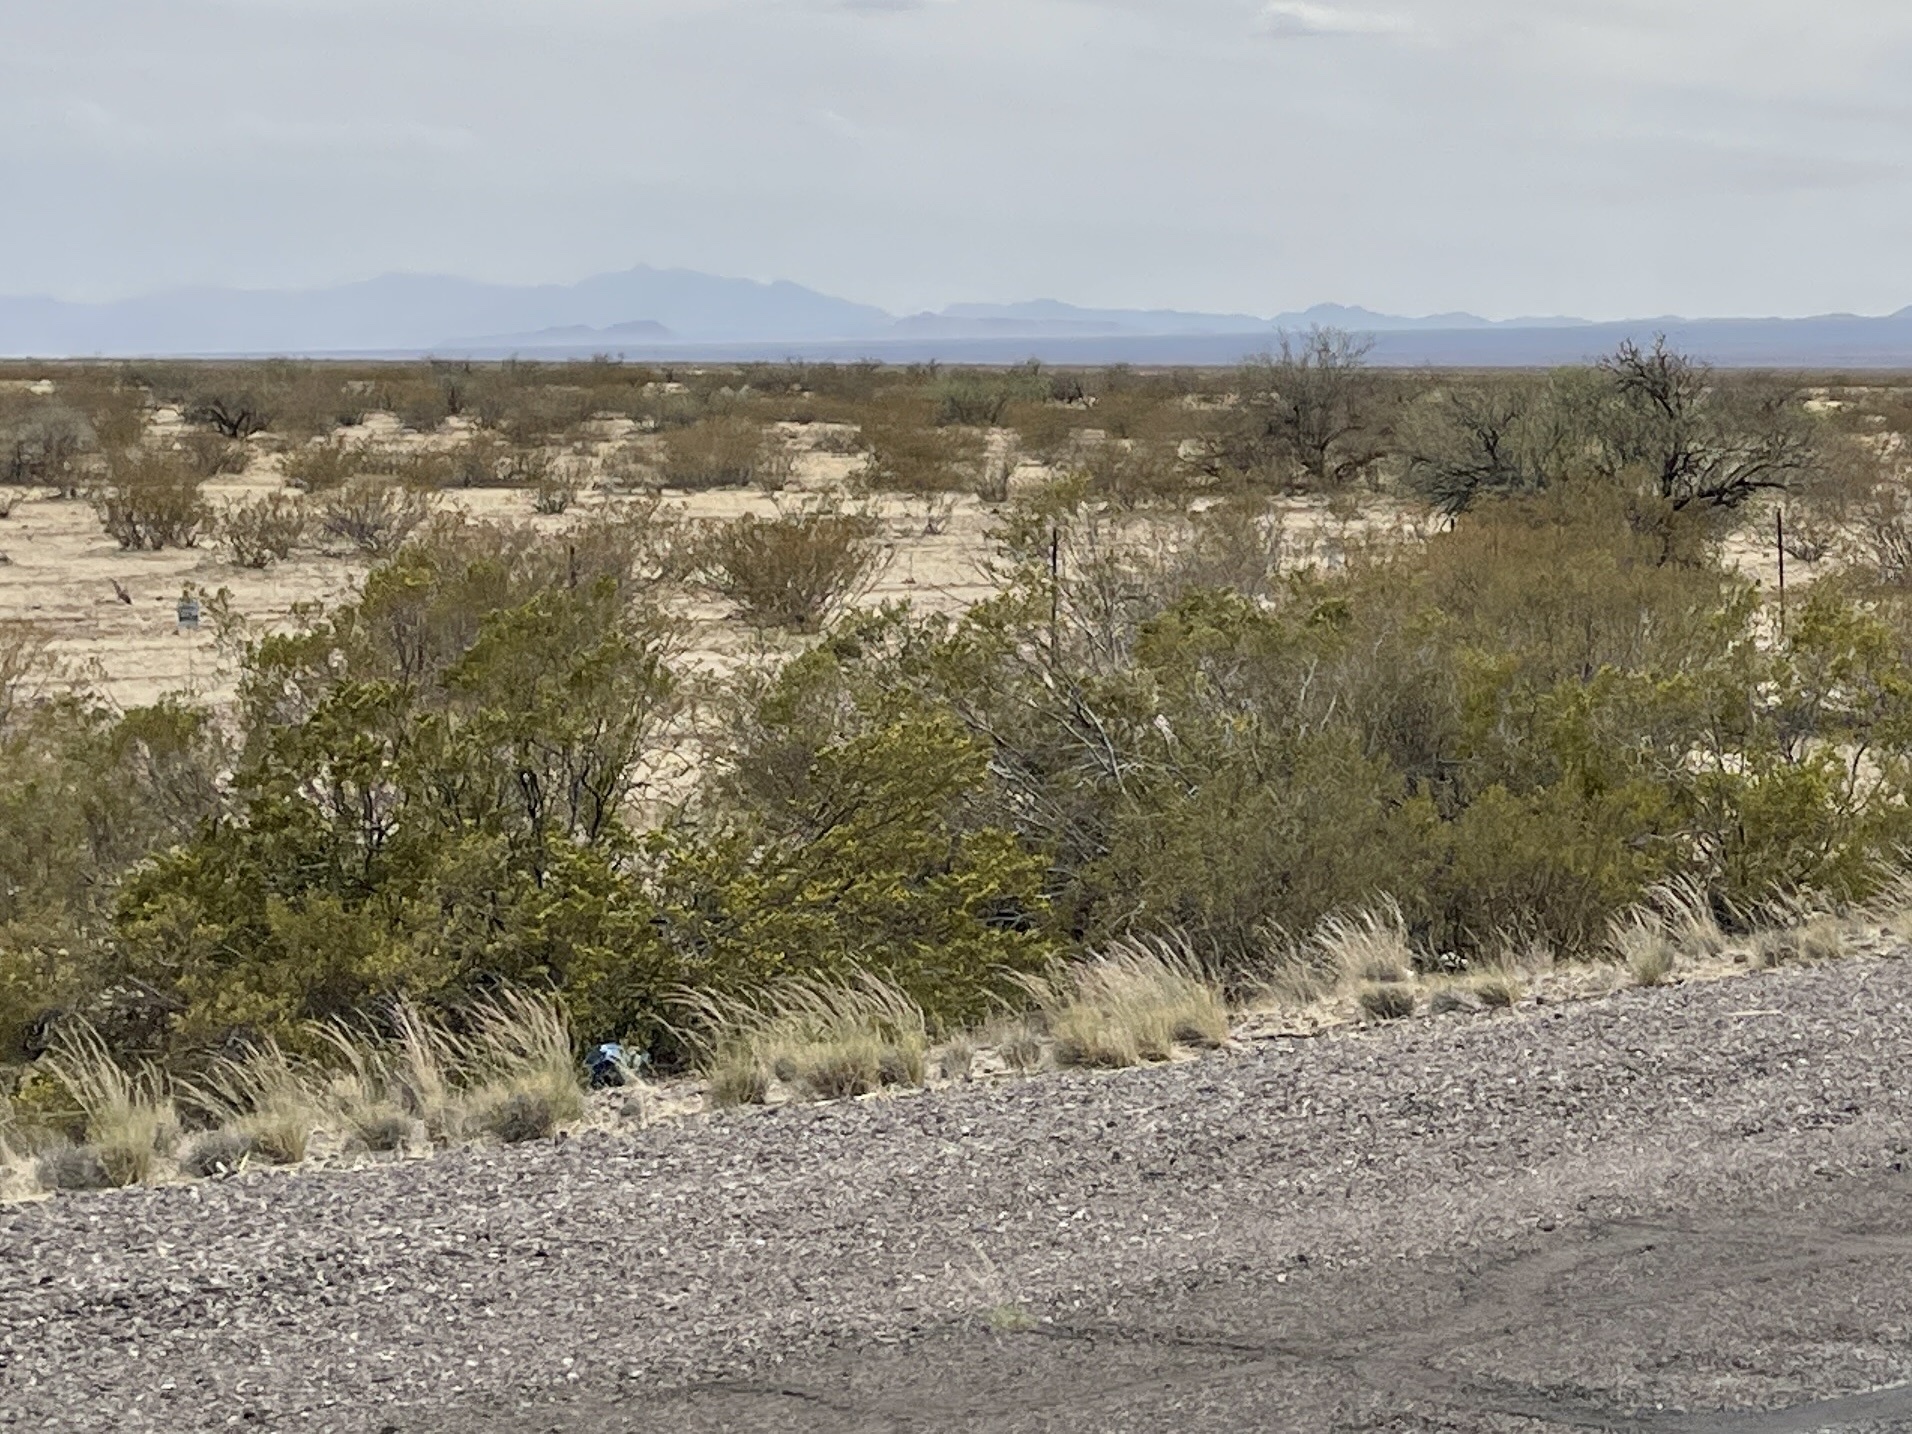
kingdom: Plantae
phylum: Tracheophyta
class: Magnoliopsida
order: Zygophyllales
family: Zygophyllaceae
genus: Larrea
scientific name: Larrea tridentata
